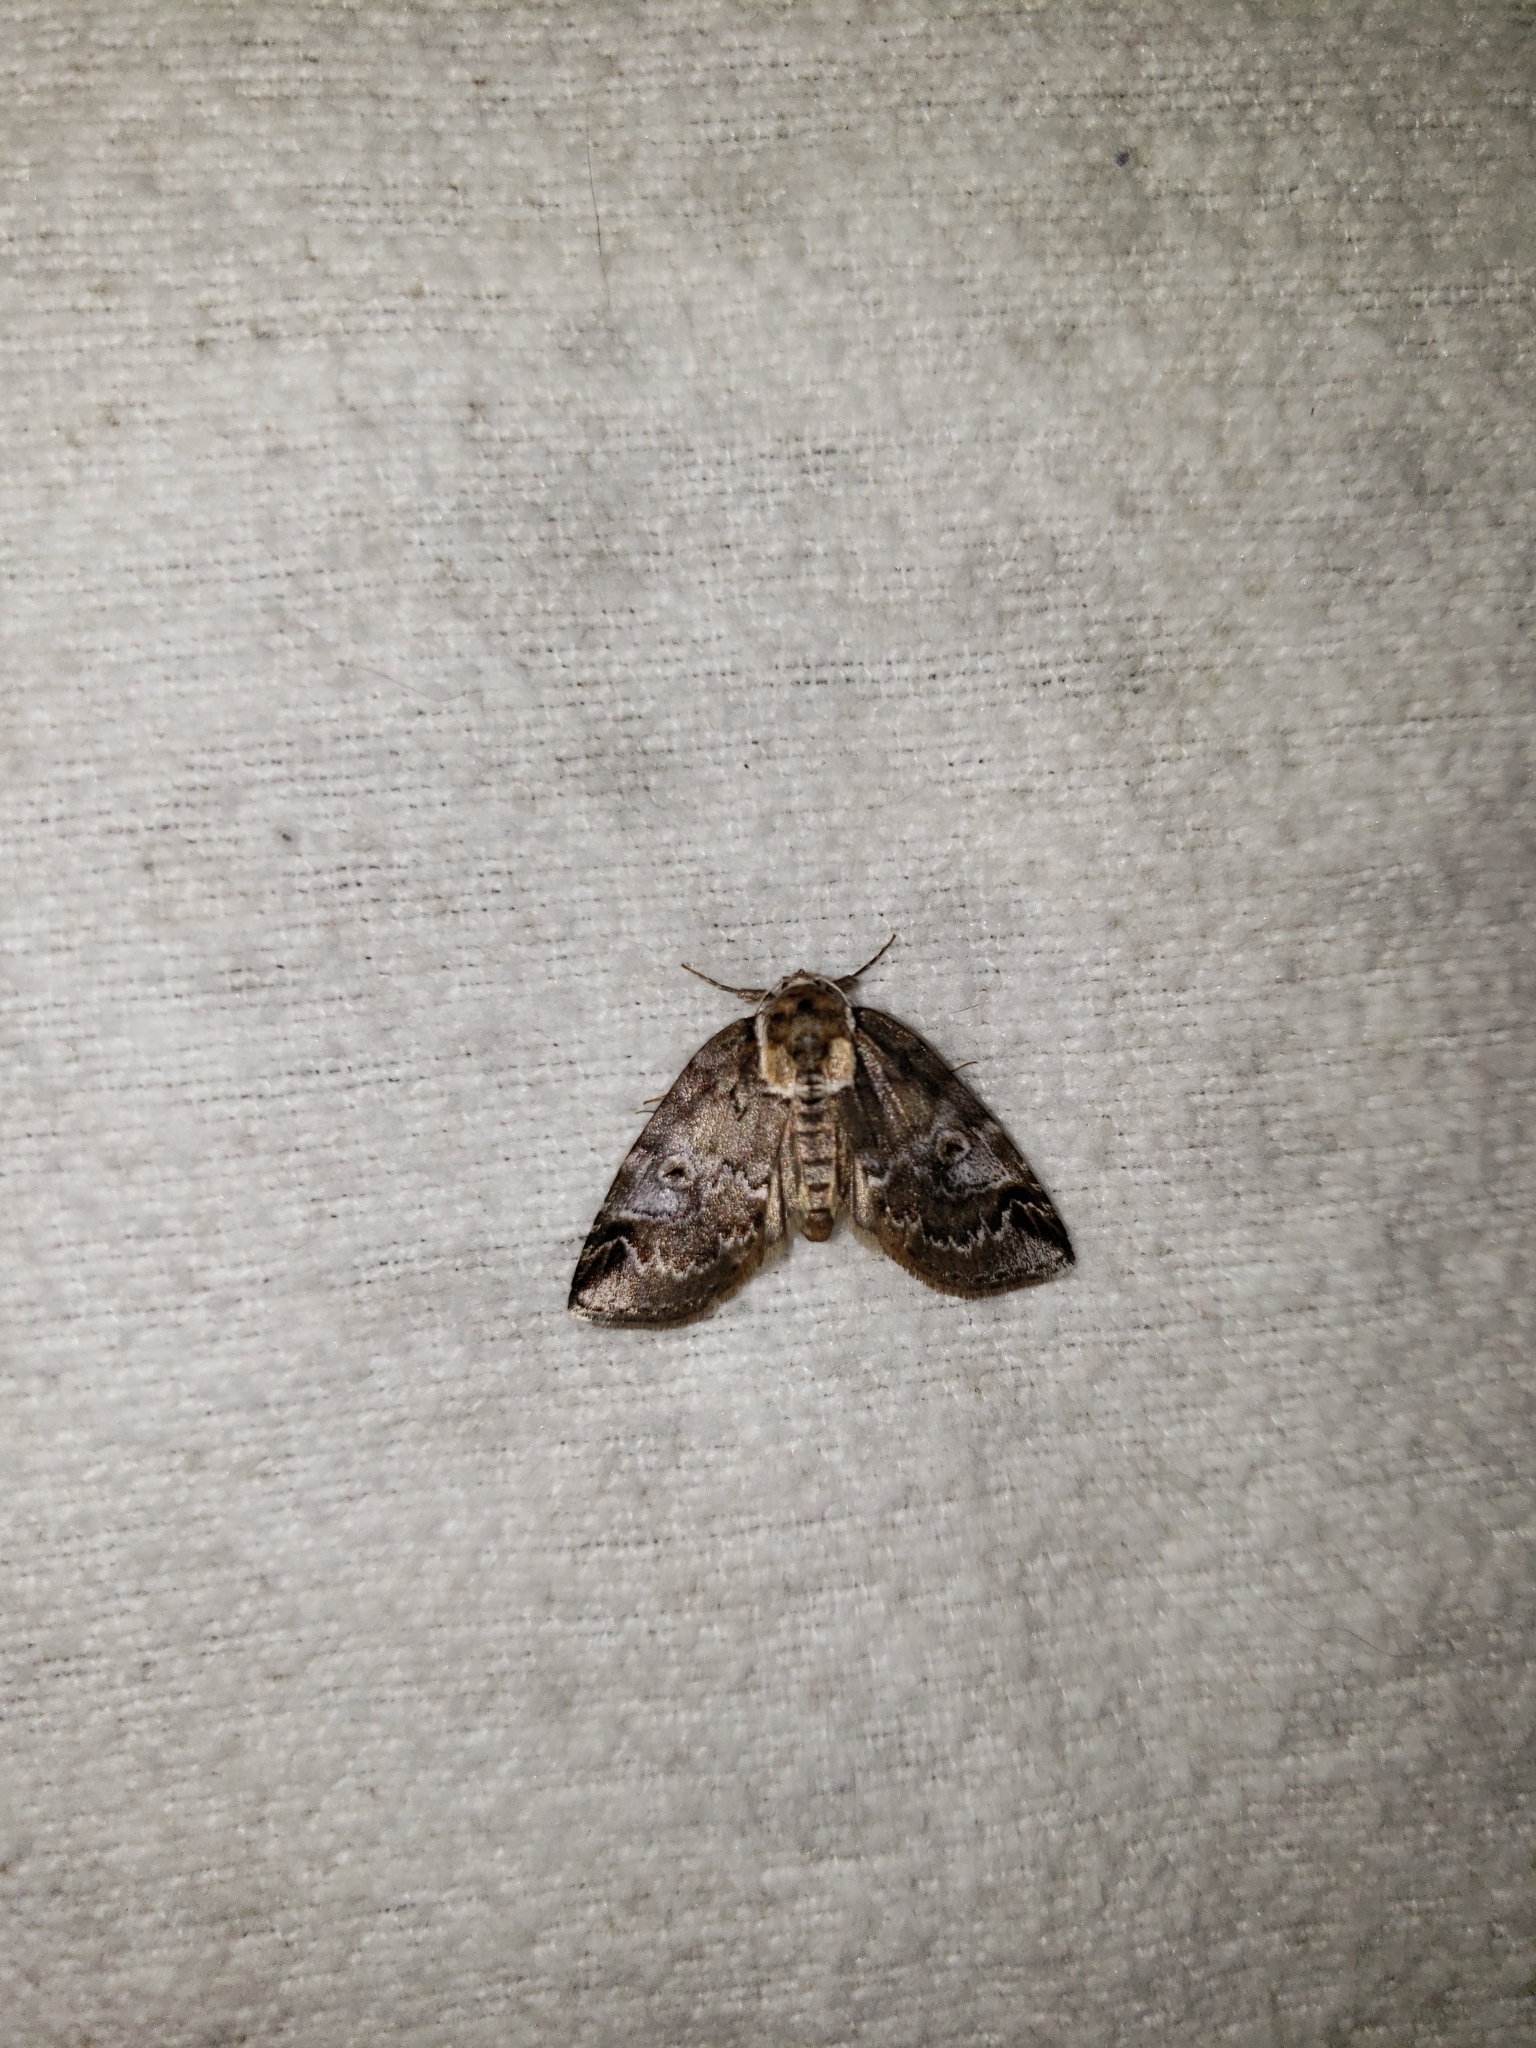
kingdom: Animalia
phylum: Arthropoda
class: Insecta
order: Lepidoptera
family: Nolidae
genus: Baileya
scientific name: Baileya ophthalmica
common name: Eyed baileya moth
